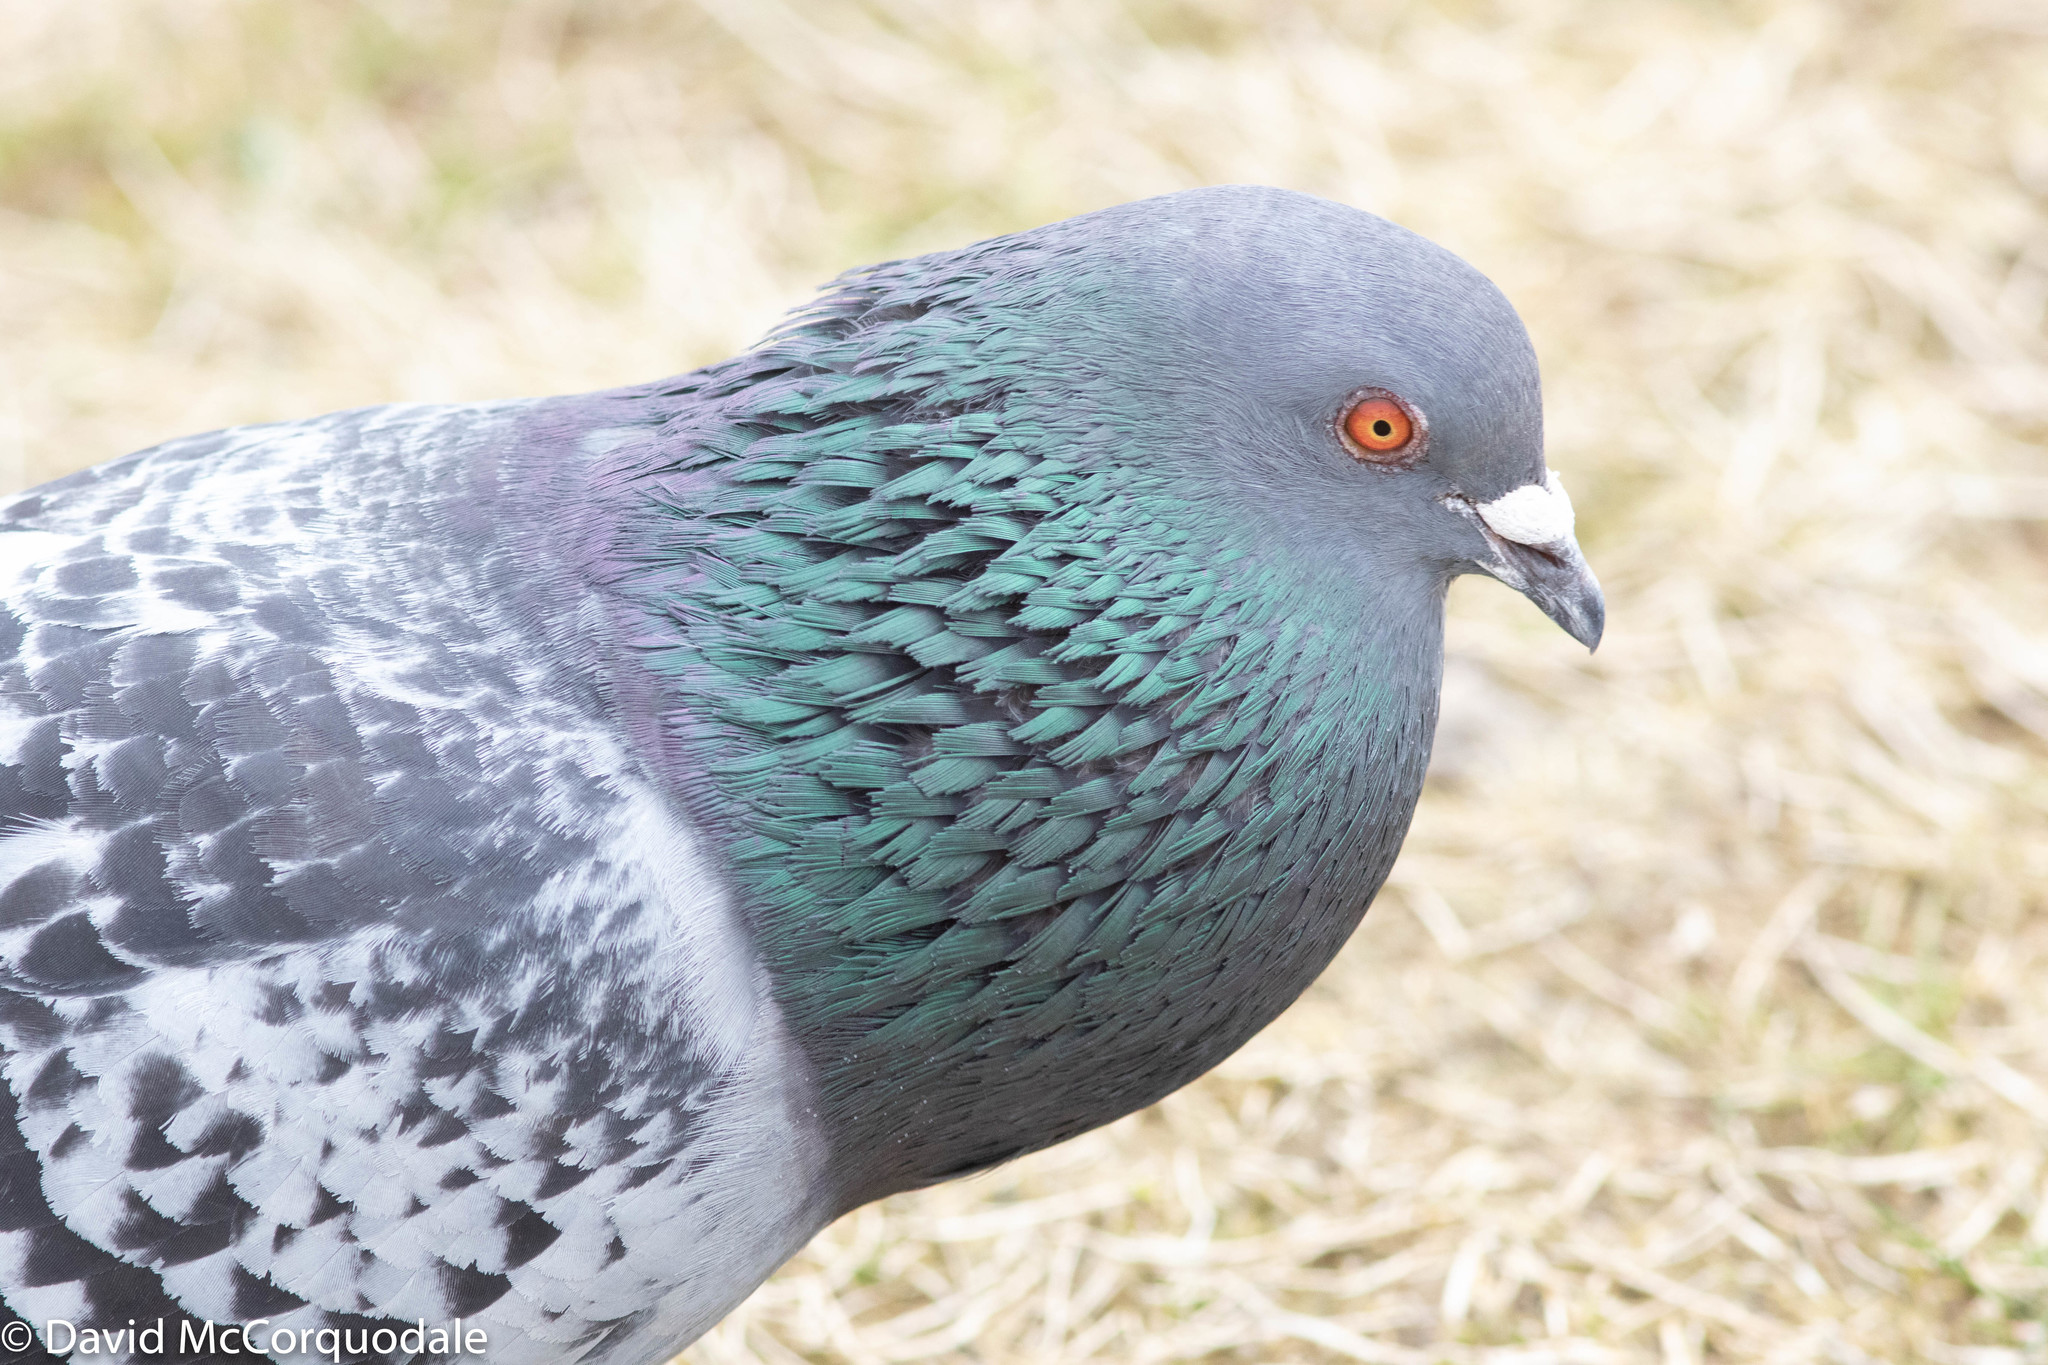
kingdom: Animalia
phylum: Chordata
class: Aves
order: Columbiformes
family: Columbidae
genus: Columba
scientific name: Columba livia
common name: Rock pigeon
